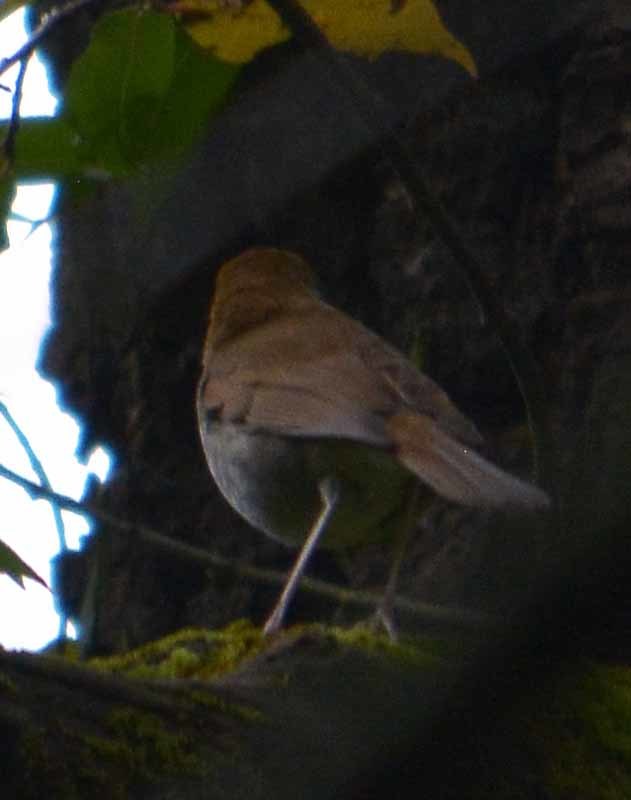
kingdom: Animalia
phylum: Chordata
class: Aves
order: Passeriformes
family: Turdidae
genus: Catharus
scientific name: Catharus frantzii
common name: Ruddy-capped nightingale-thrush
